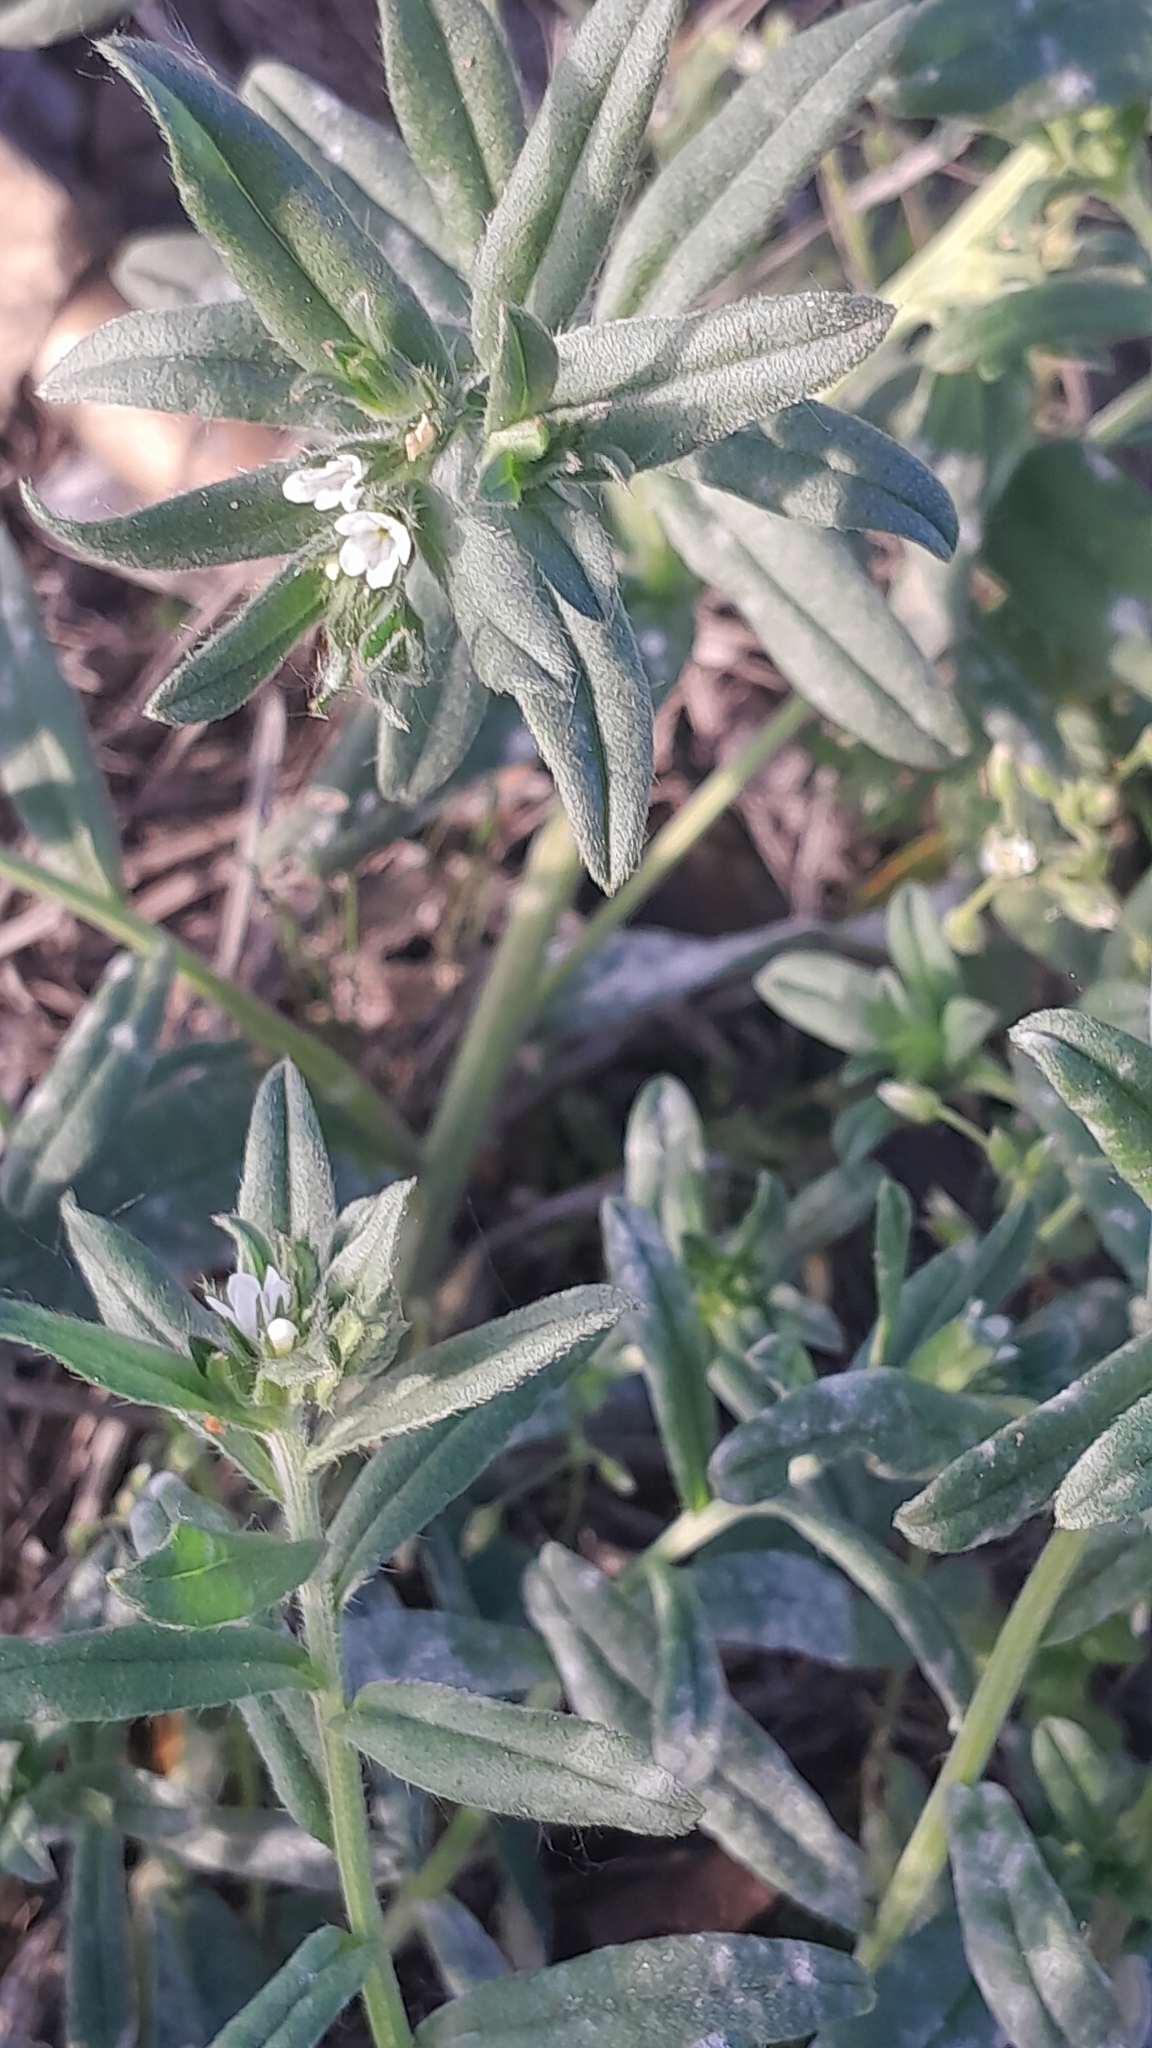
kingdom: Plantae
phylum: Tracheophyta
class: Magnoliopsida
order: Boraginales
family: Boraginaceae
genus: Buglossoides
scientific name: Buglossoides arvensis
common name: Corn gromwell
